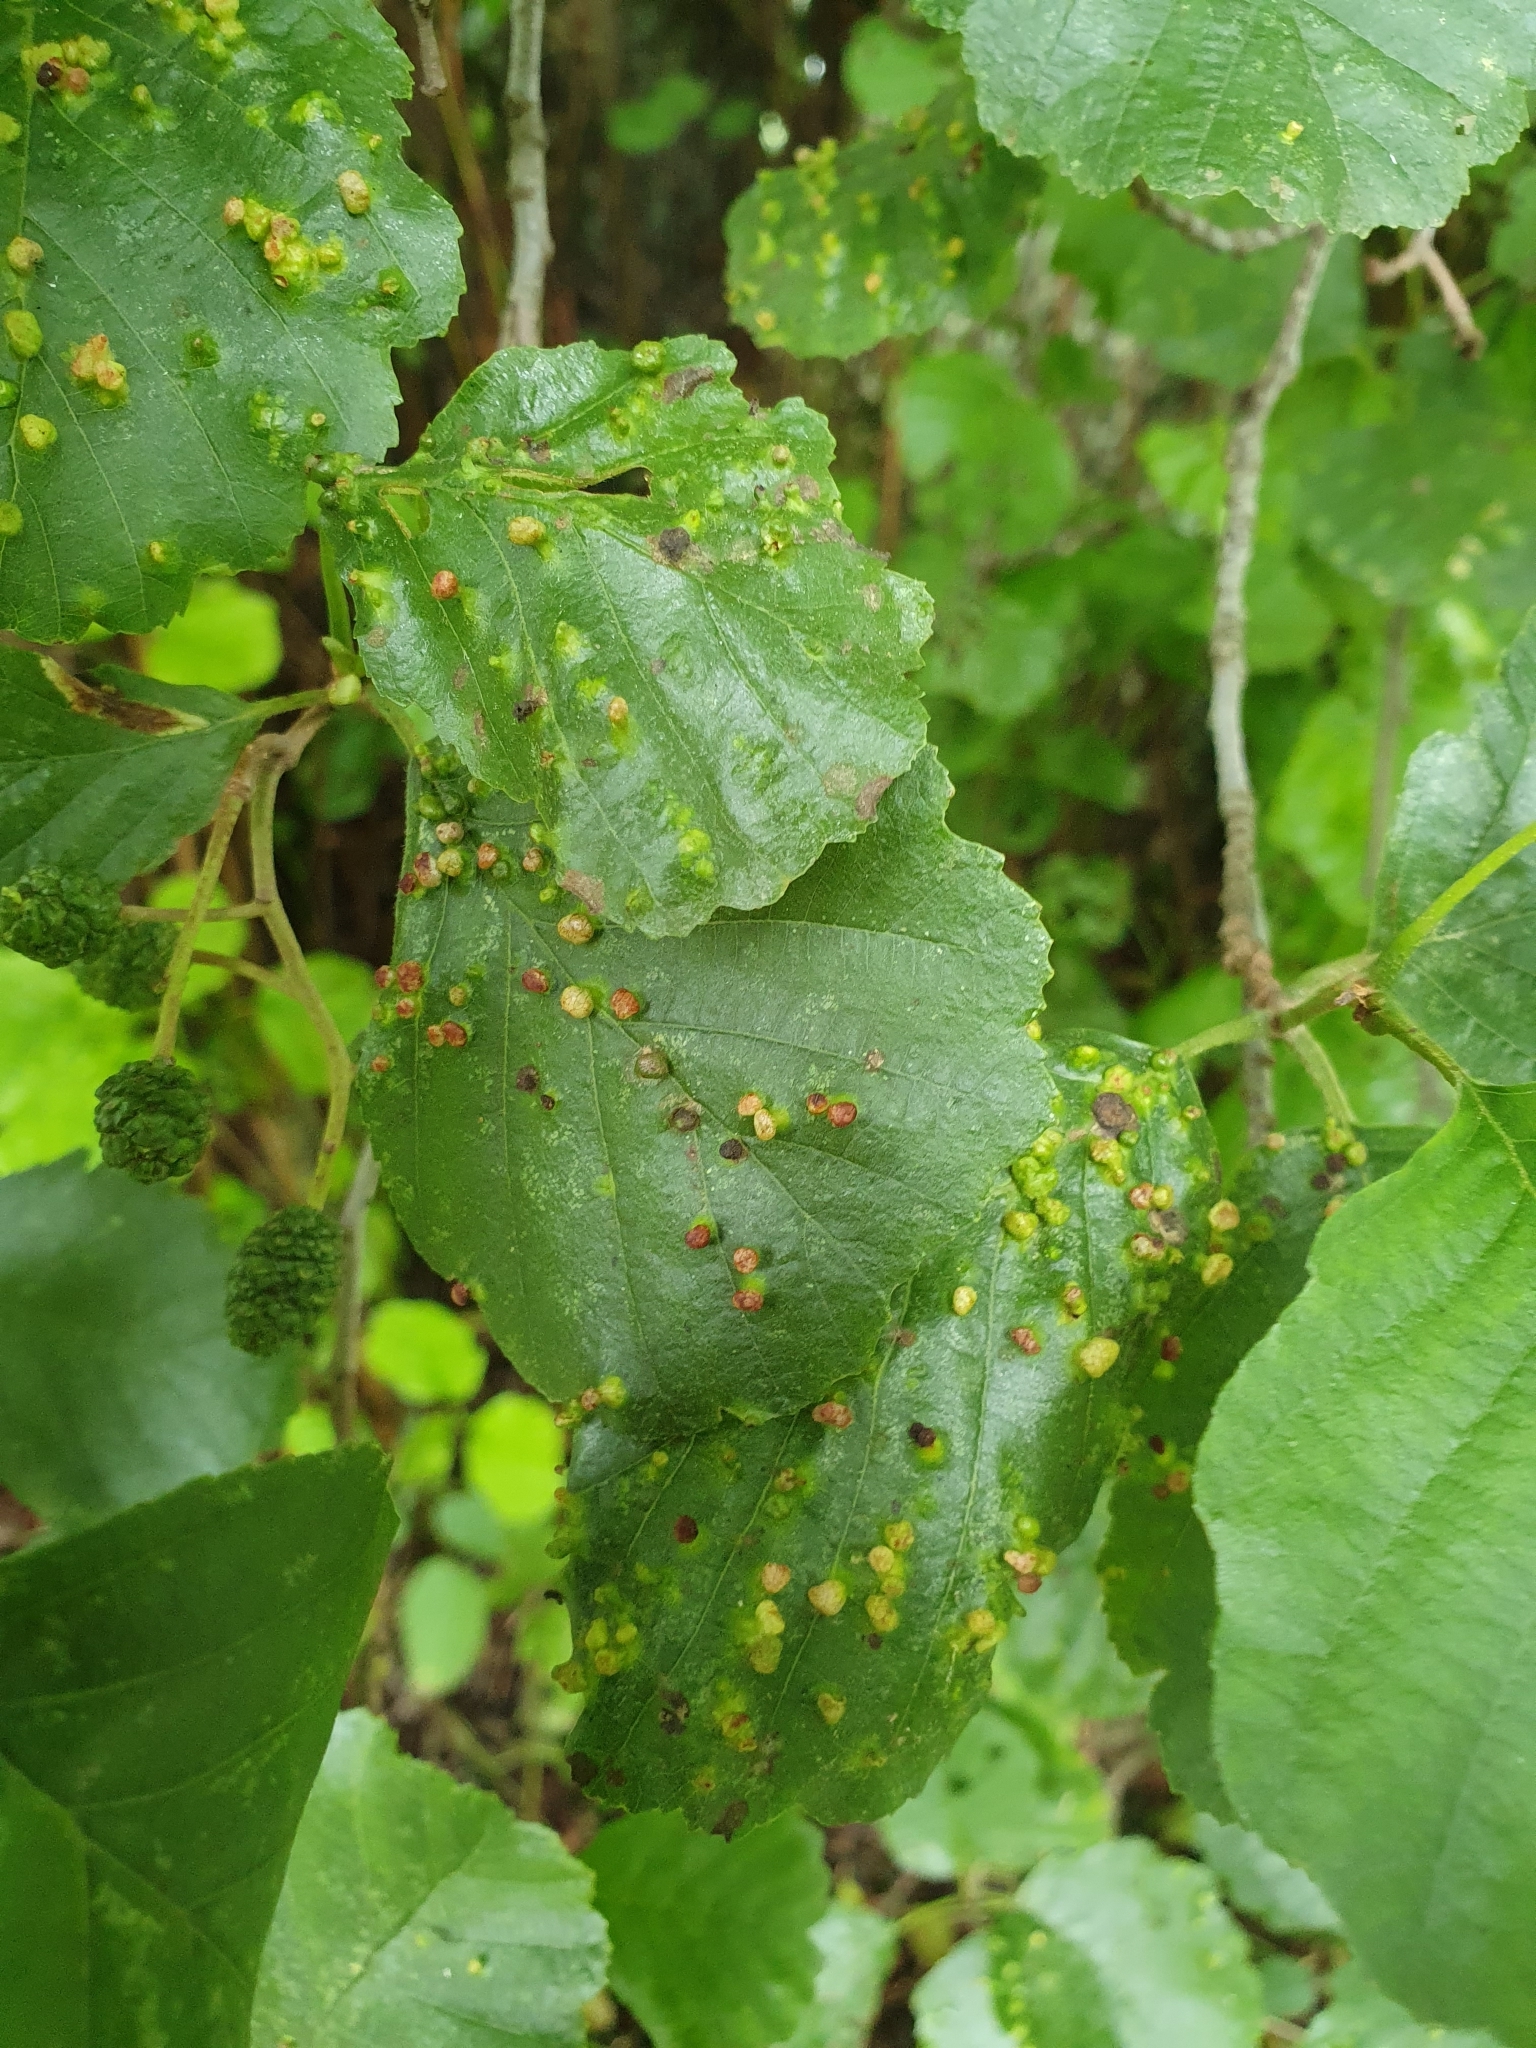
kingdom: Animalia
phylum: Arthropoda
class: Arachnida
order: Trombidiformes
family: Eriophyidae
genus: Eriophyes
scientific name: Eriophyes laevis
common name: Alder leaf gall mite
